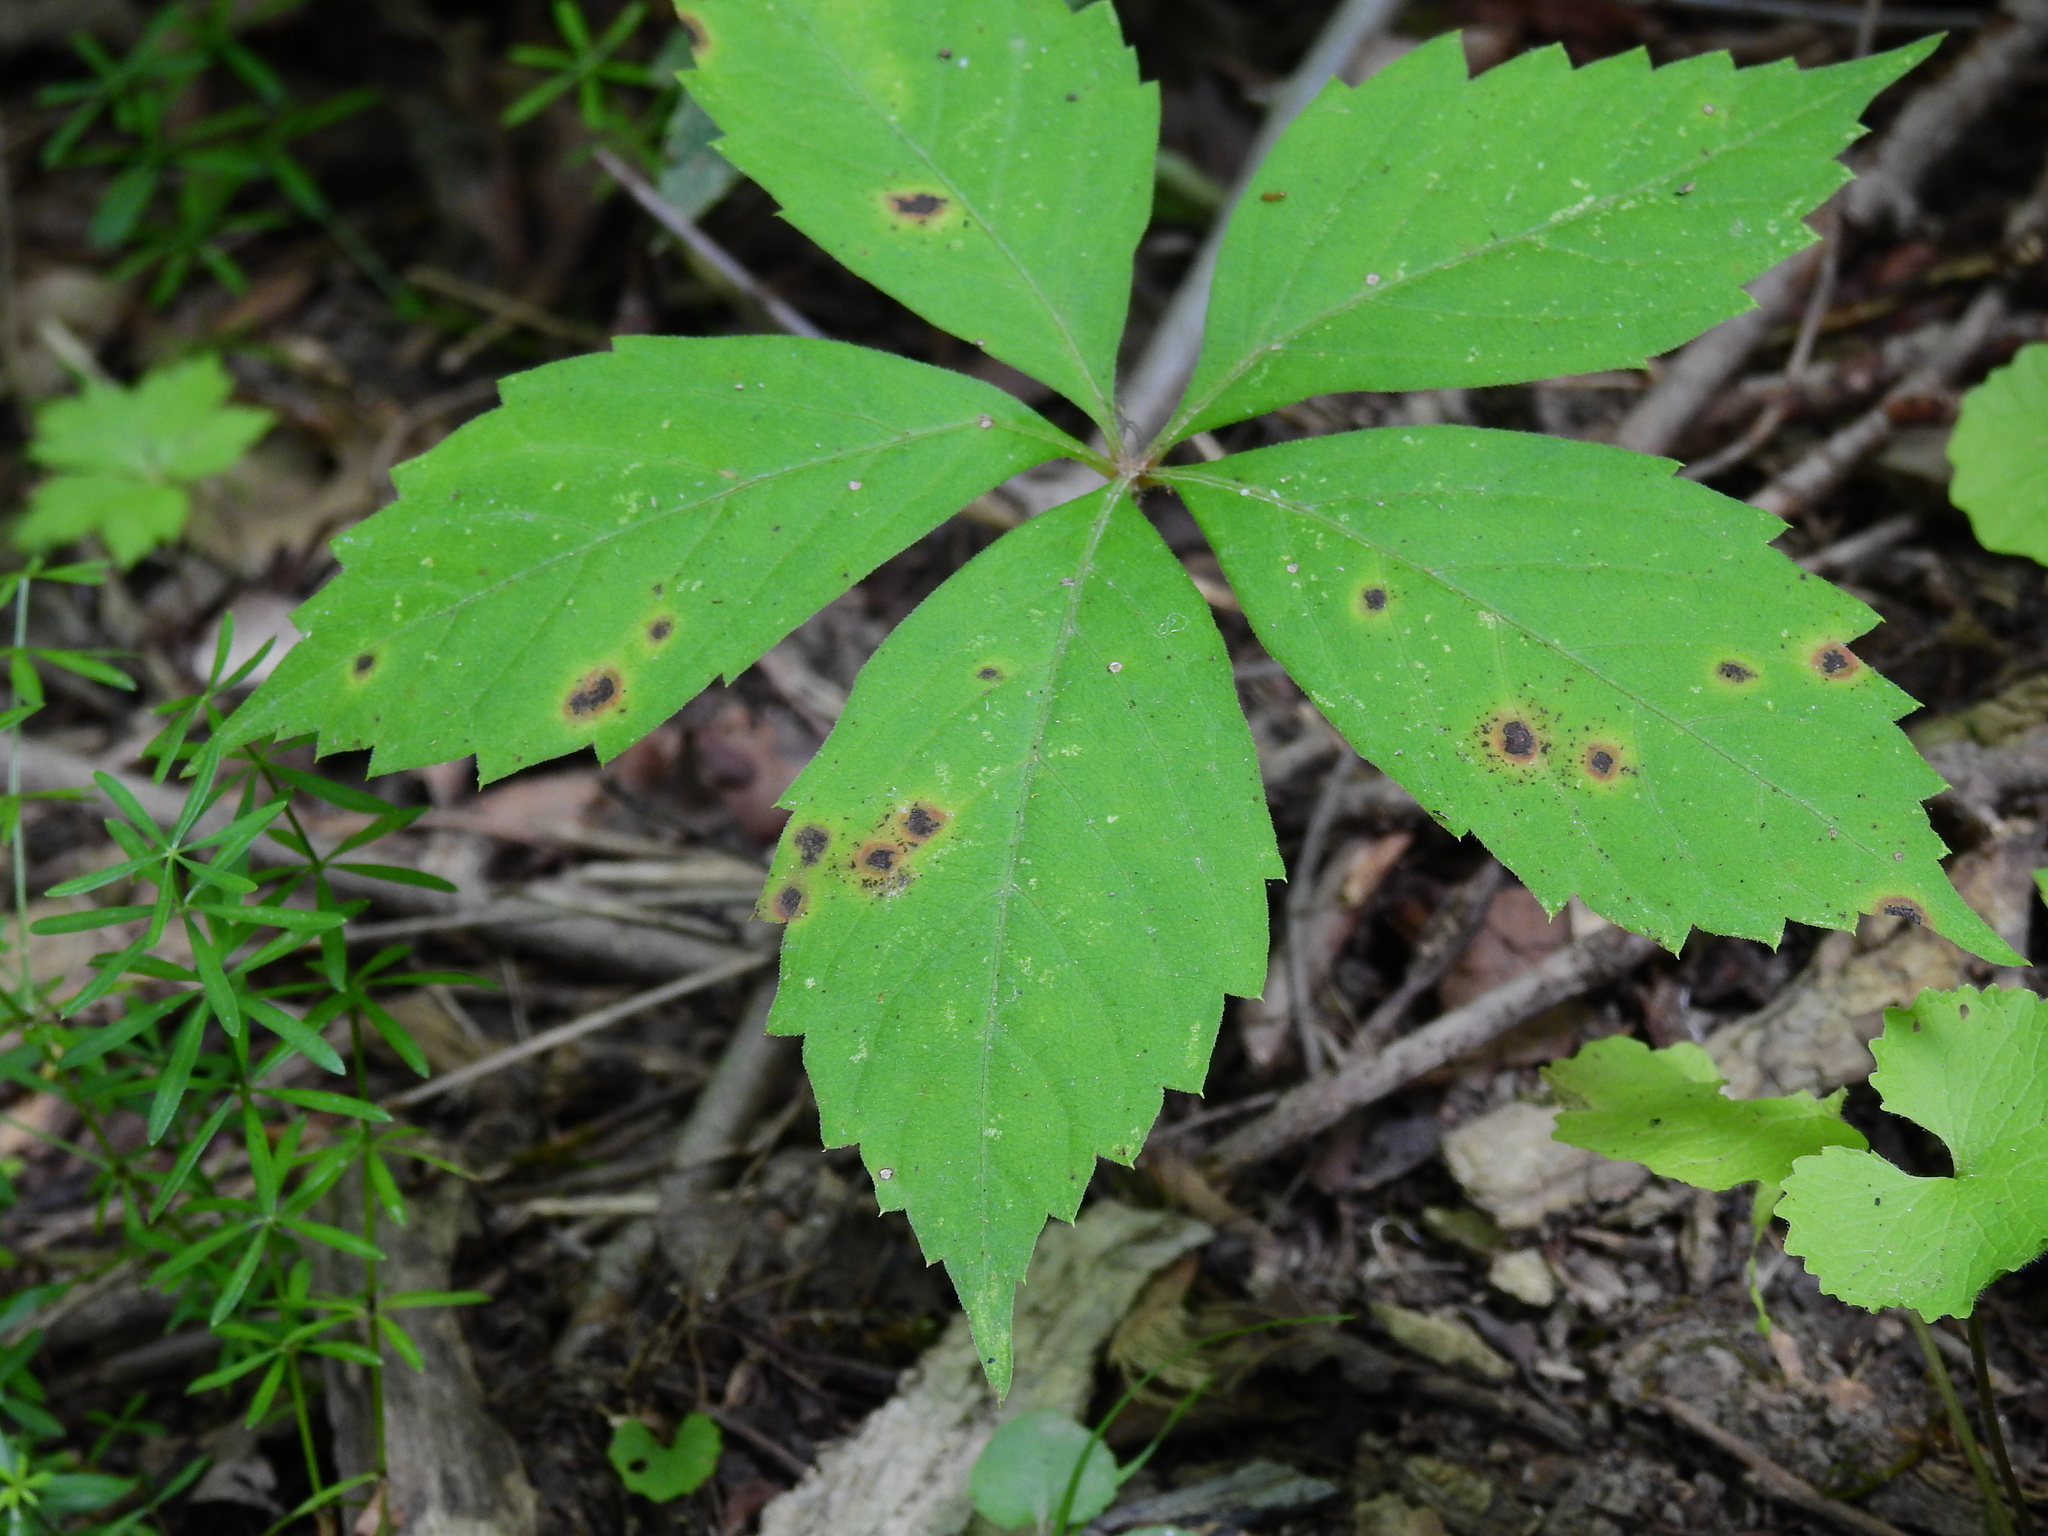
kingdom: Plantae
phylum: Tracheophyta
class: Magnoliopsida
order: Vitales
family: Vitaceae
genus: Parthenocissus
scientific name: Parthenocissus quinquefolia
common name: Virginia-creeper
